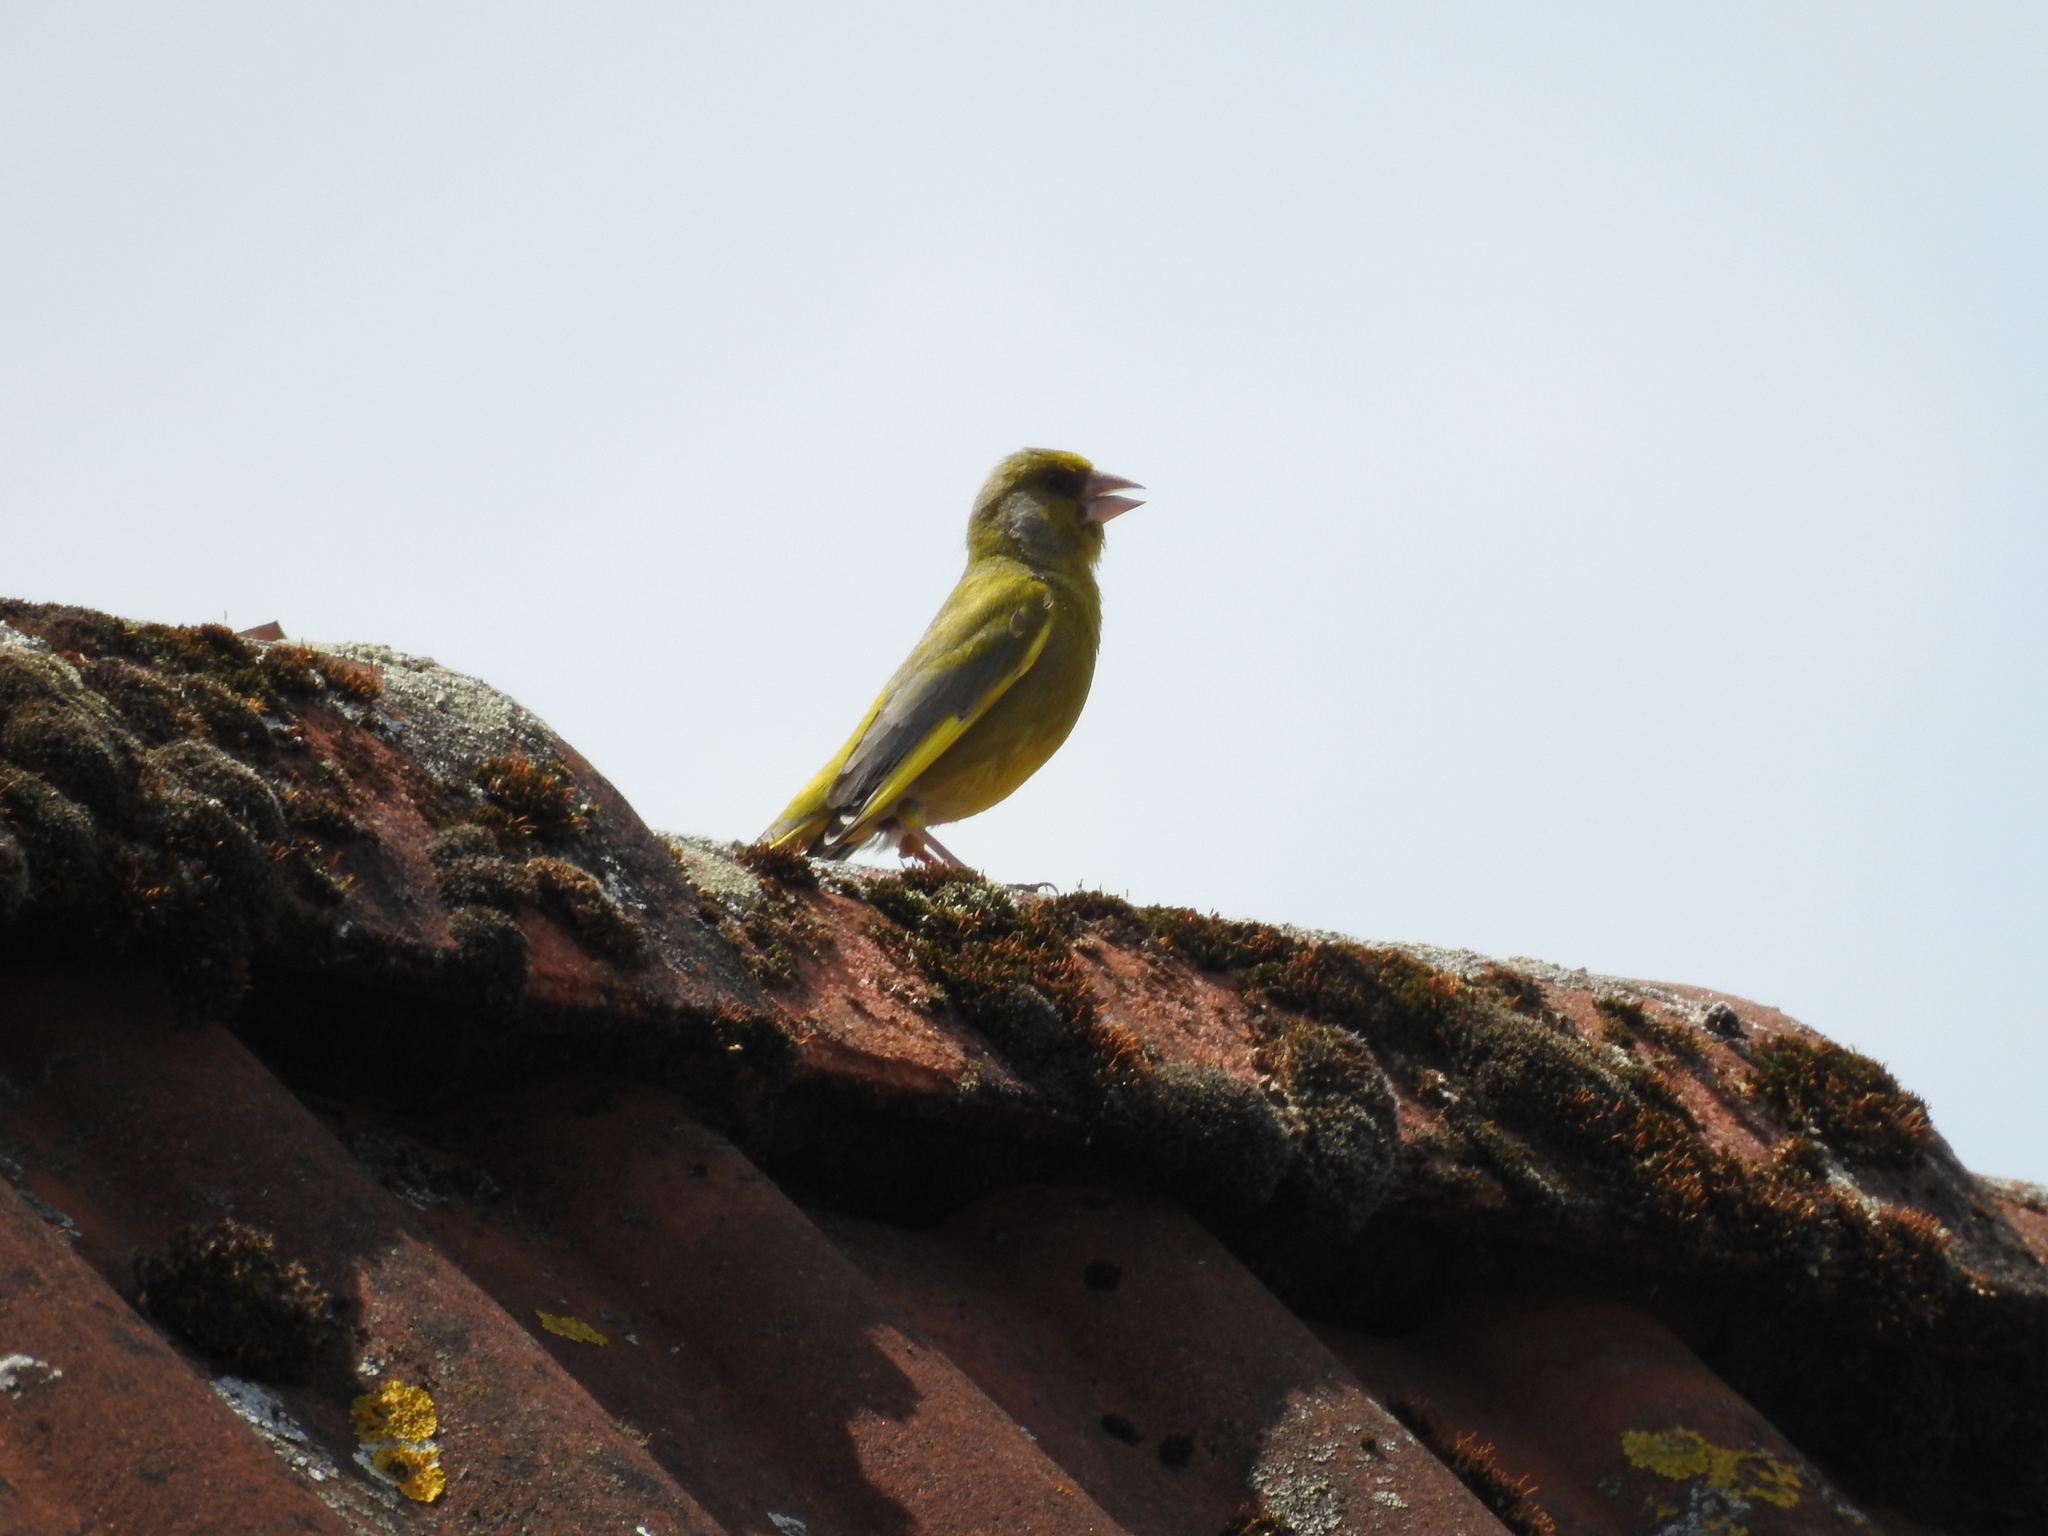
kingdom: Plantae
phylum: Tracheophyta
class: Liliopsida
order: Poales
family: Poaceae
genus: Chloris
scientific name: Chloris chloris
